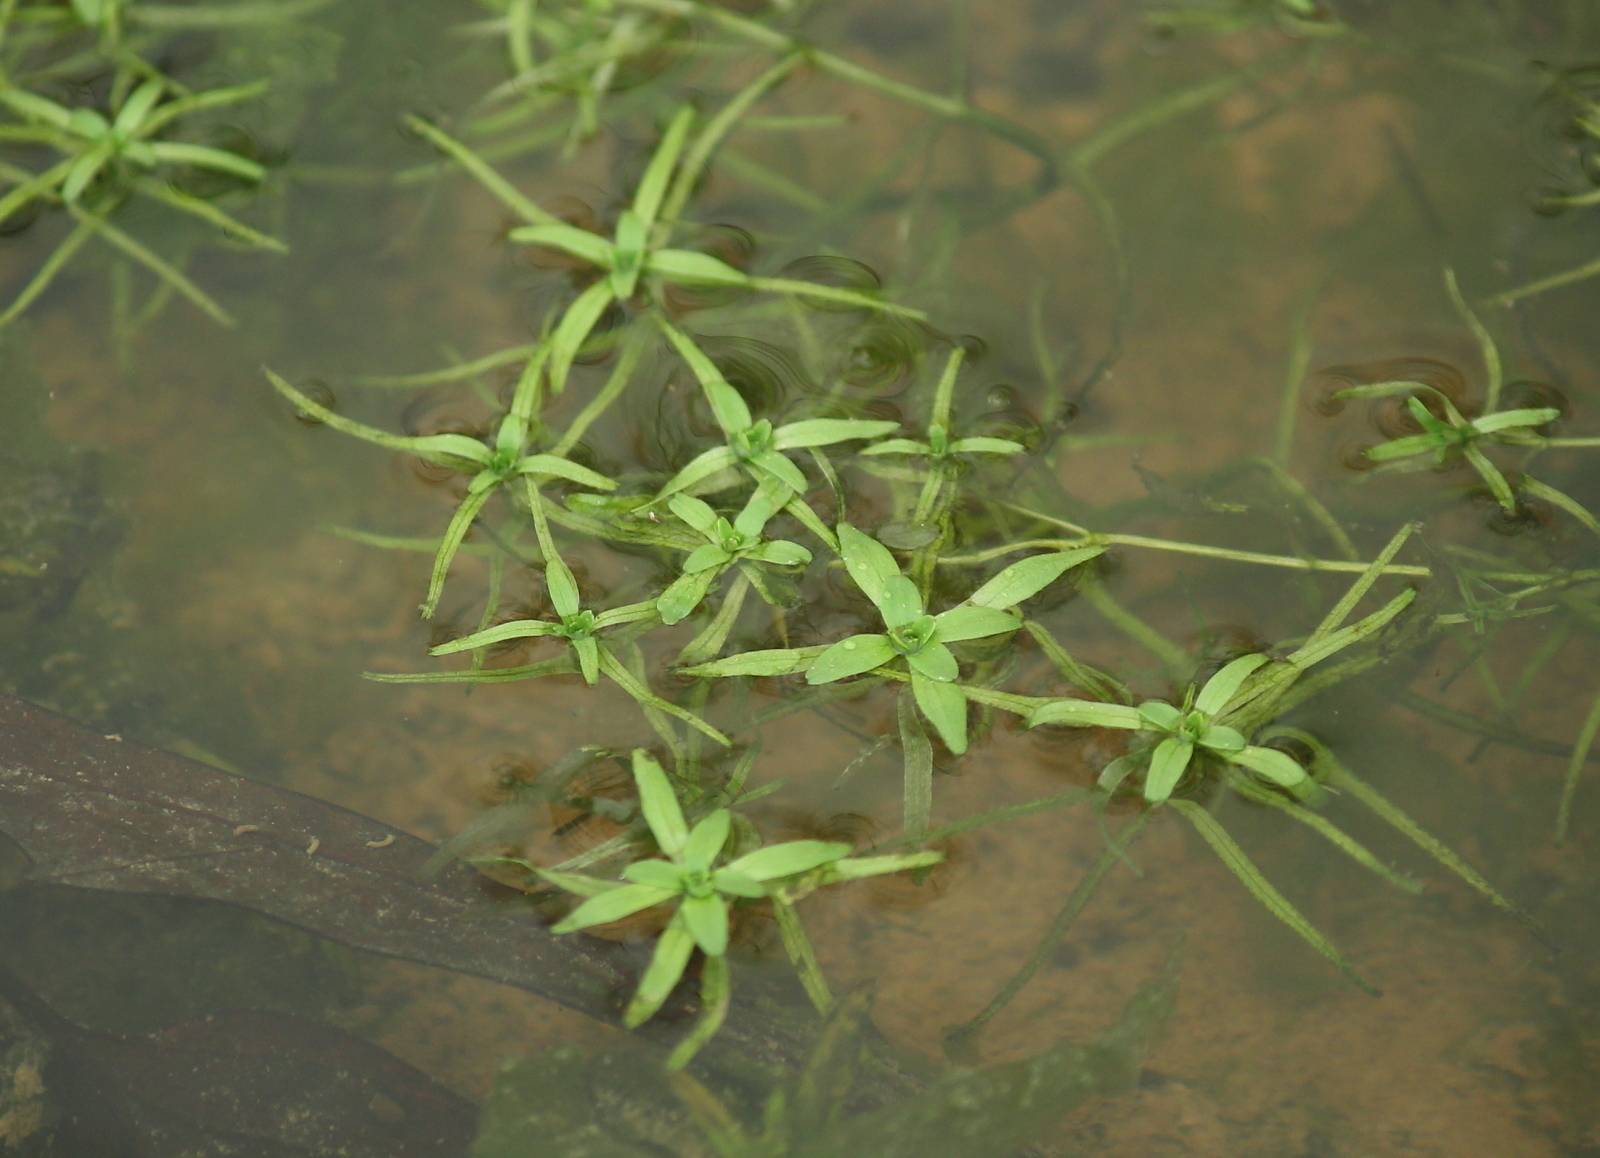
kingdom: Plantae
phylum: Tracheophyta
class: Magnoliopsida
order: Lamiales
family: Plantaginaceae
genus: Callitriche
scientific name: Callitriche heterophylla
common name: Two-headed water-starwort
